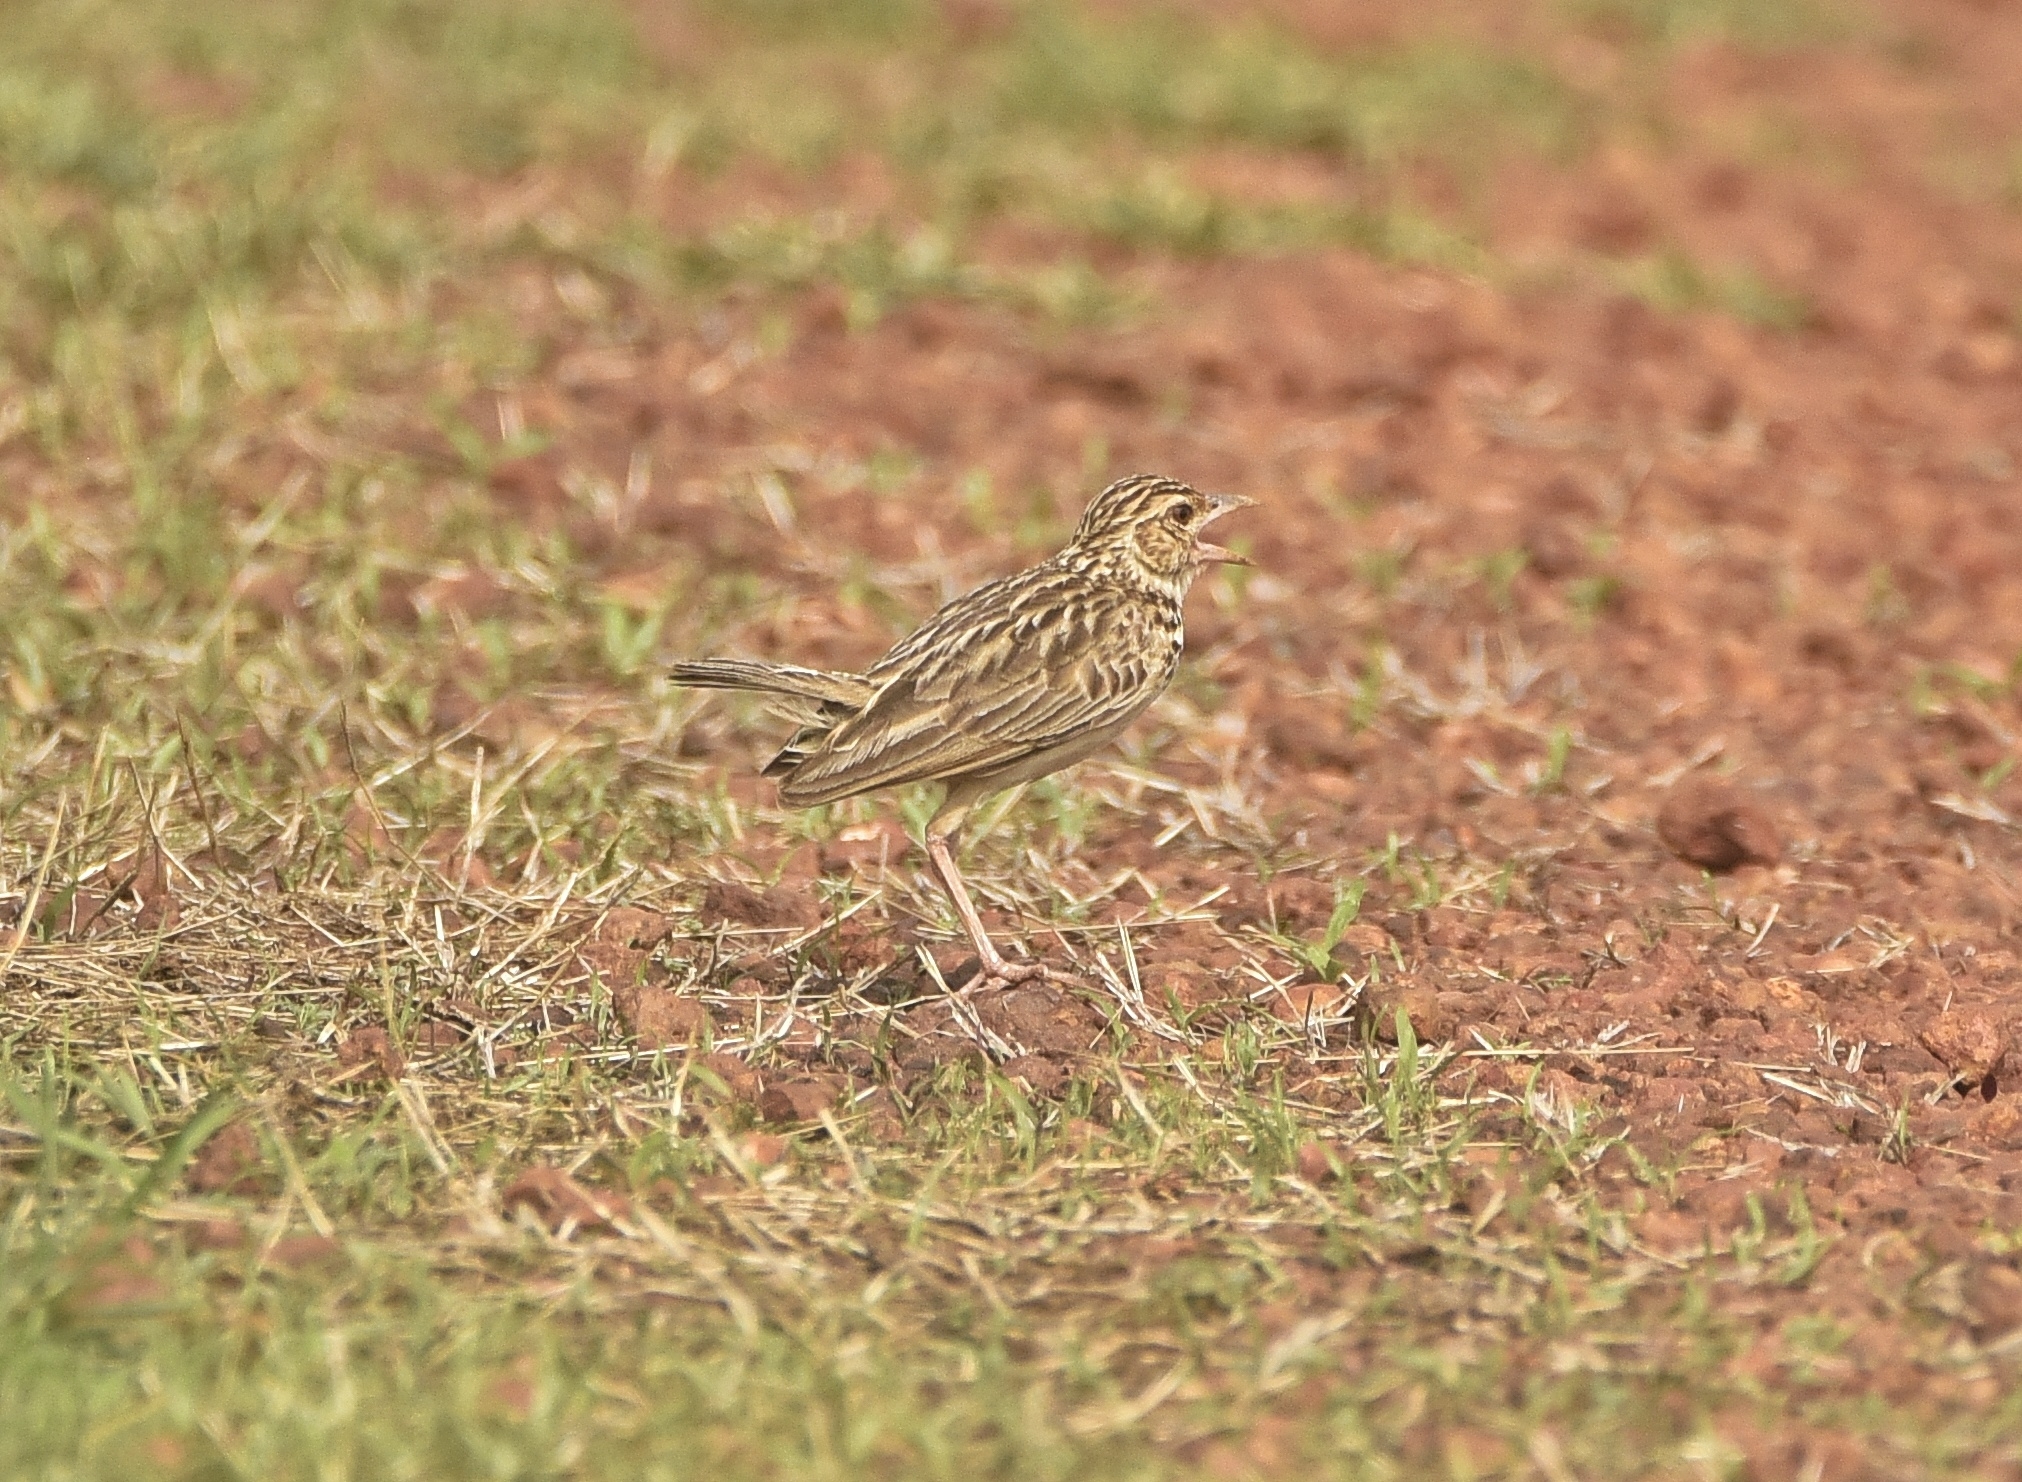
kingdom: Animalia
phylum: Chordata
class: Aves
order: Passeriformes
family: Alaudidae
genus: Mirafra
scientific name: Mirafra affinis
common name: Jerdon's bushlark
